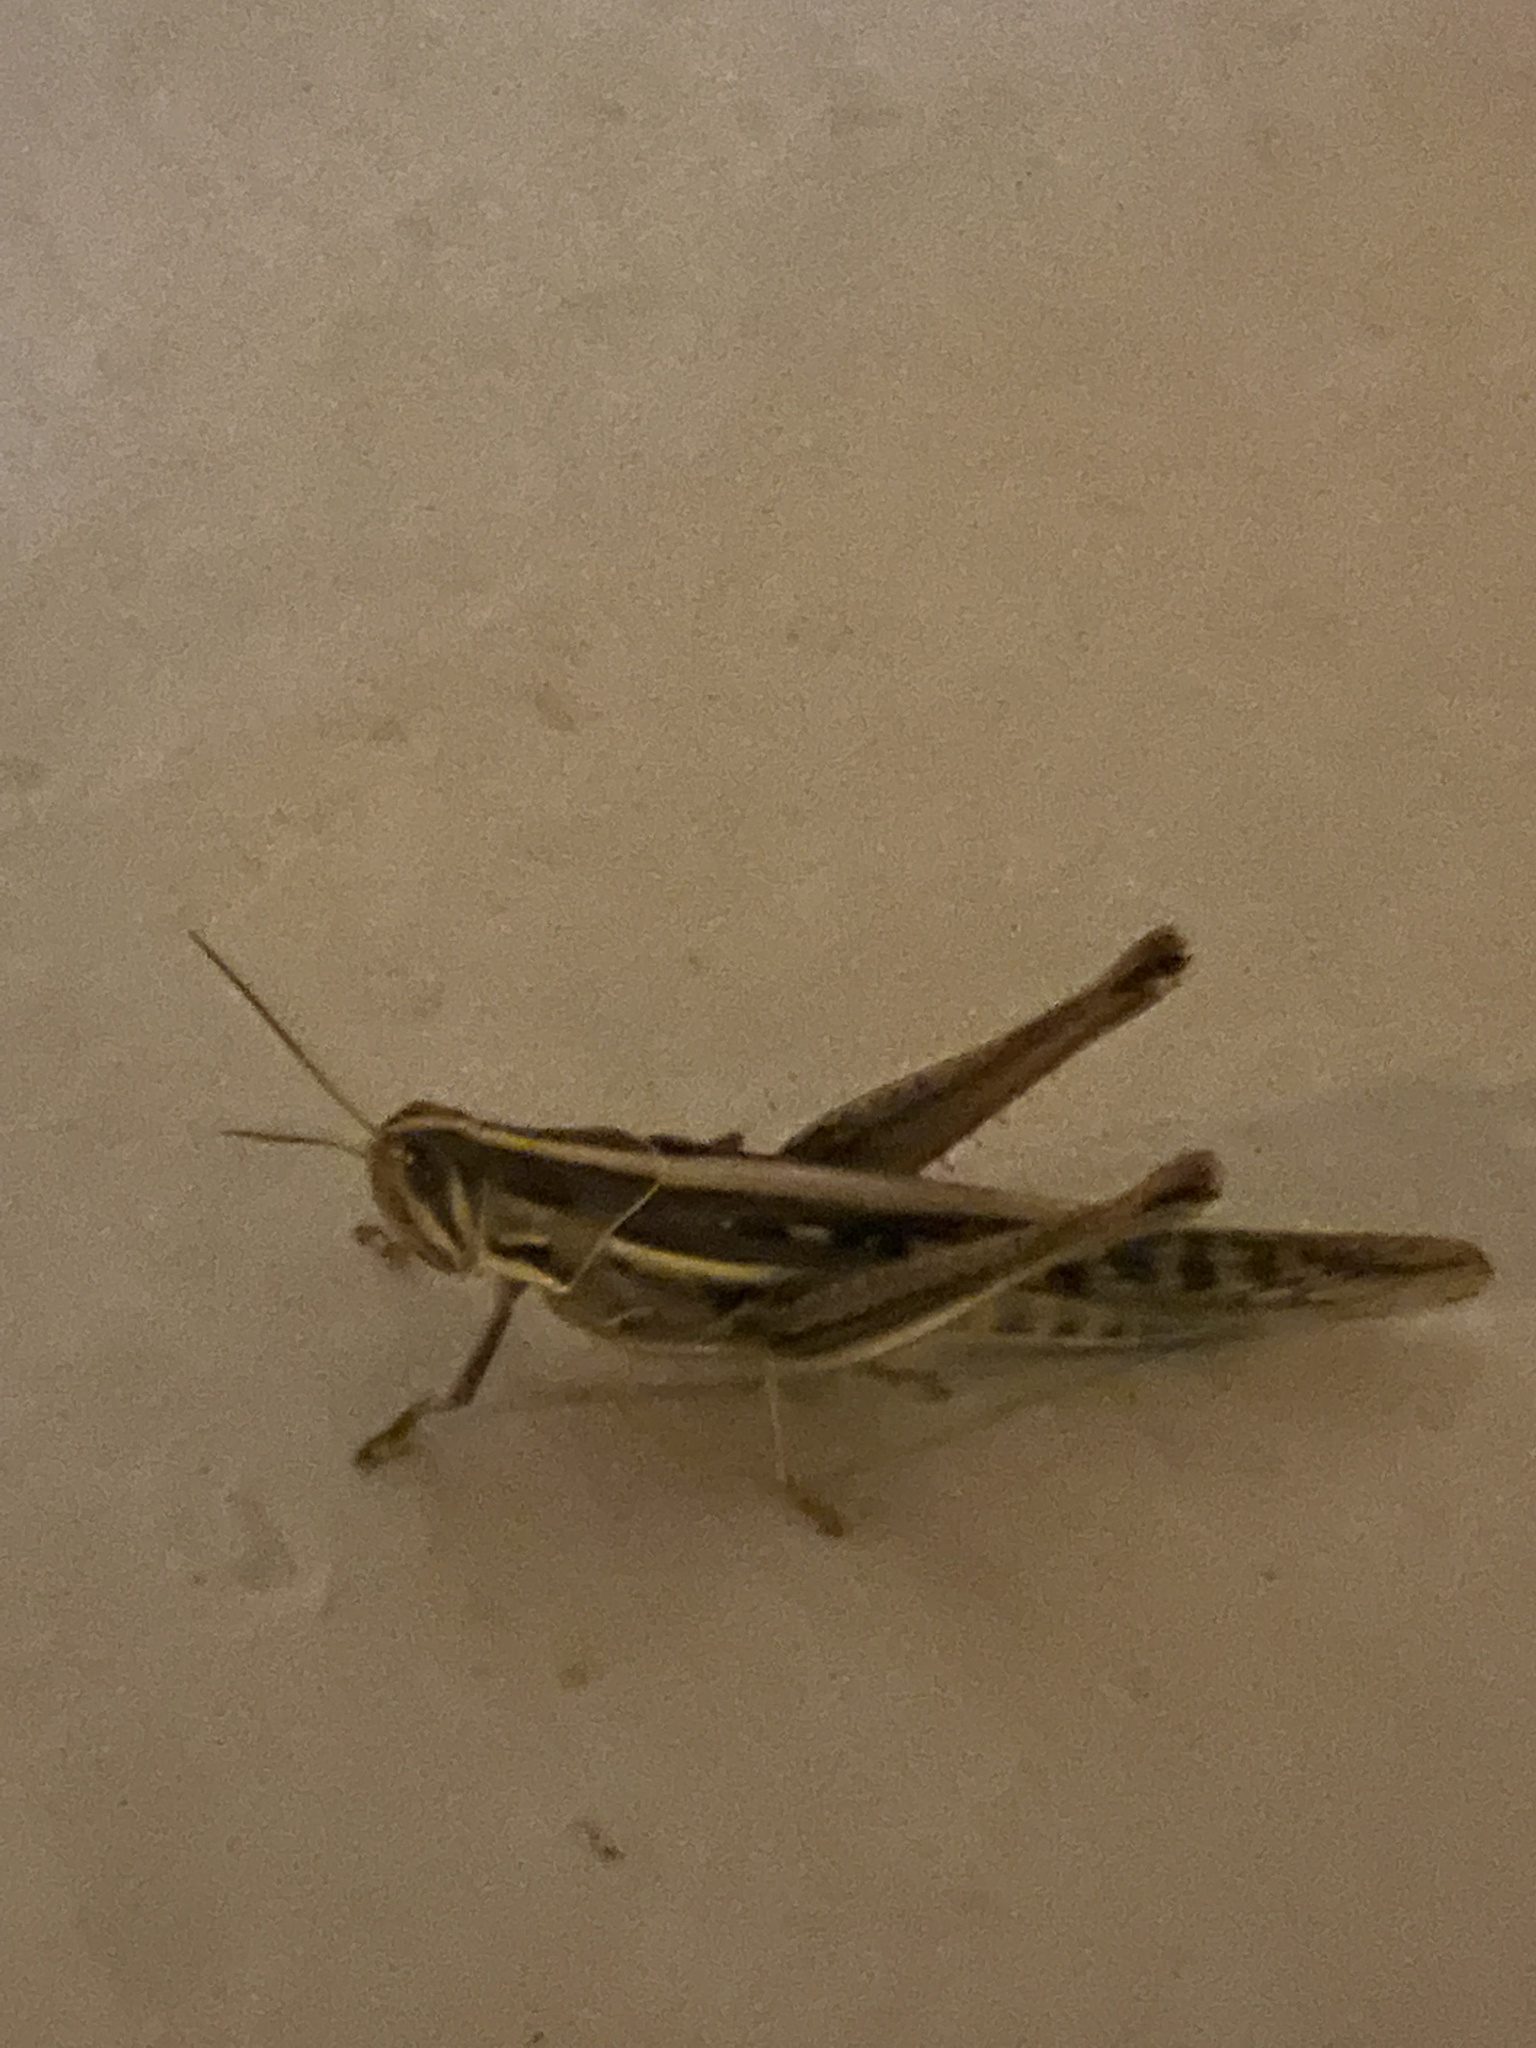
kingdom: Animalia
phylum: Arthropoda
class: Insecta
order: Orthoptera
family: Acrididae
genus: Austracris
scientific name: Austracris guttulosa
